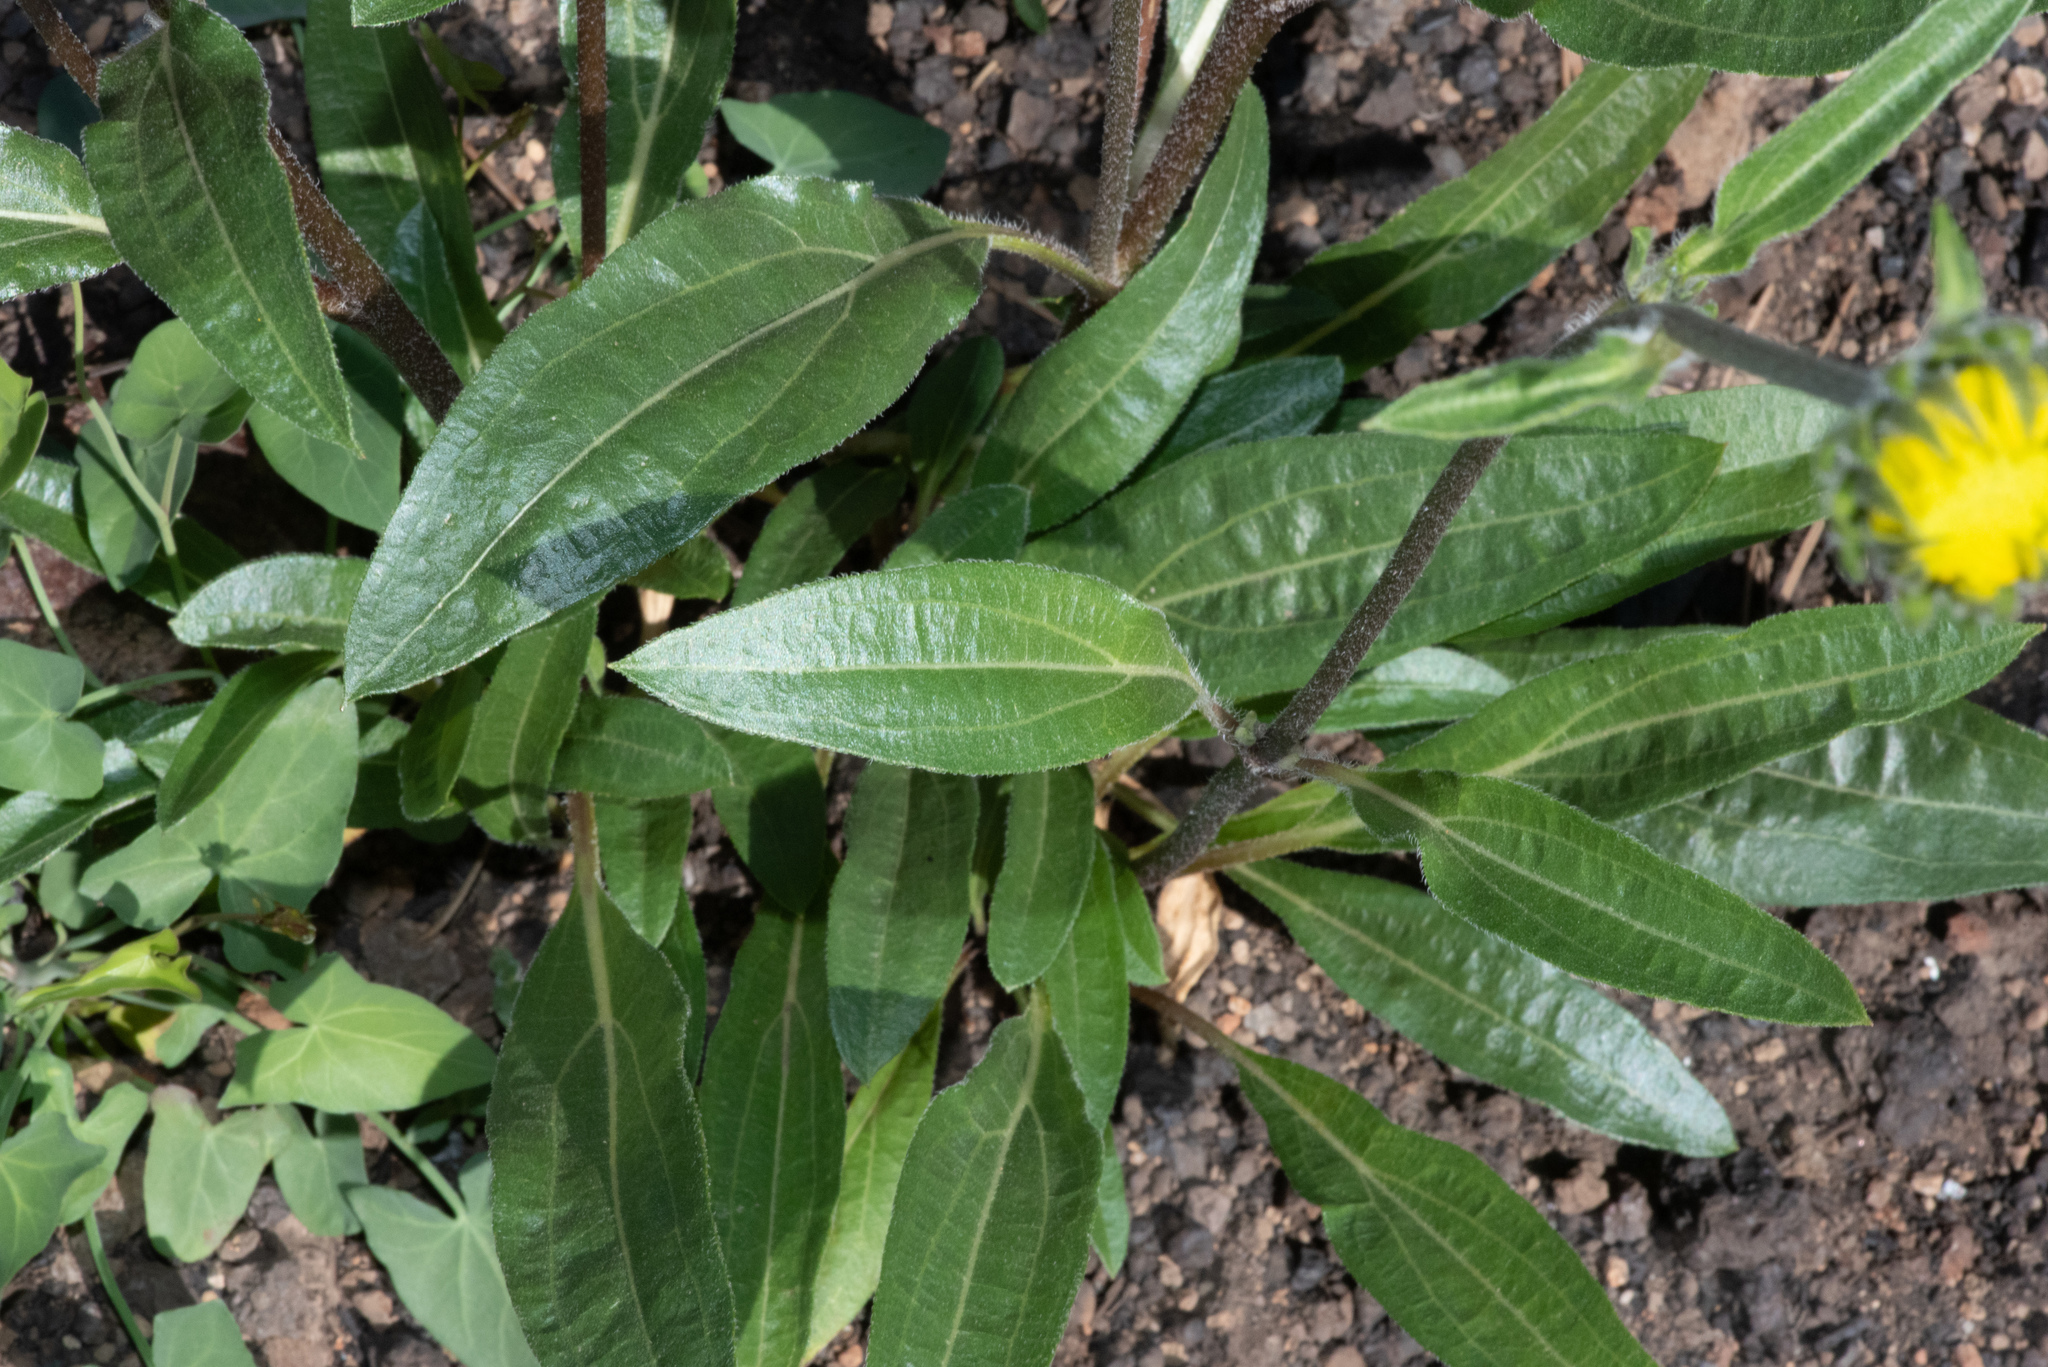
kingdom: Plantae
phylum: Tracheophyta
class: Magnoliopsida
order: Asterales
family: Asteraceae
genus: Helianthella
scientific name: Helianthella californica
